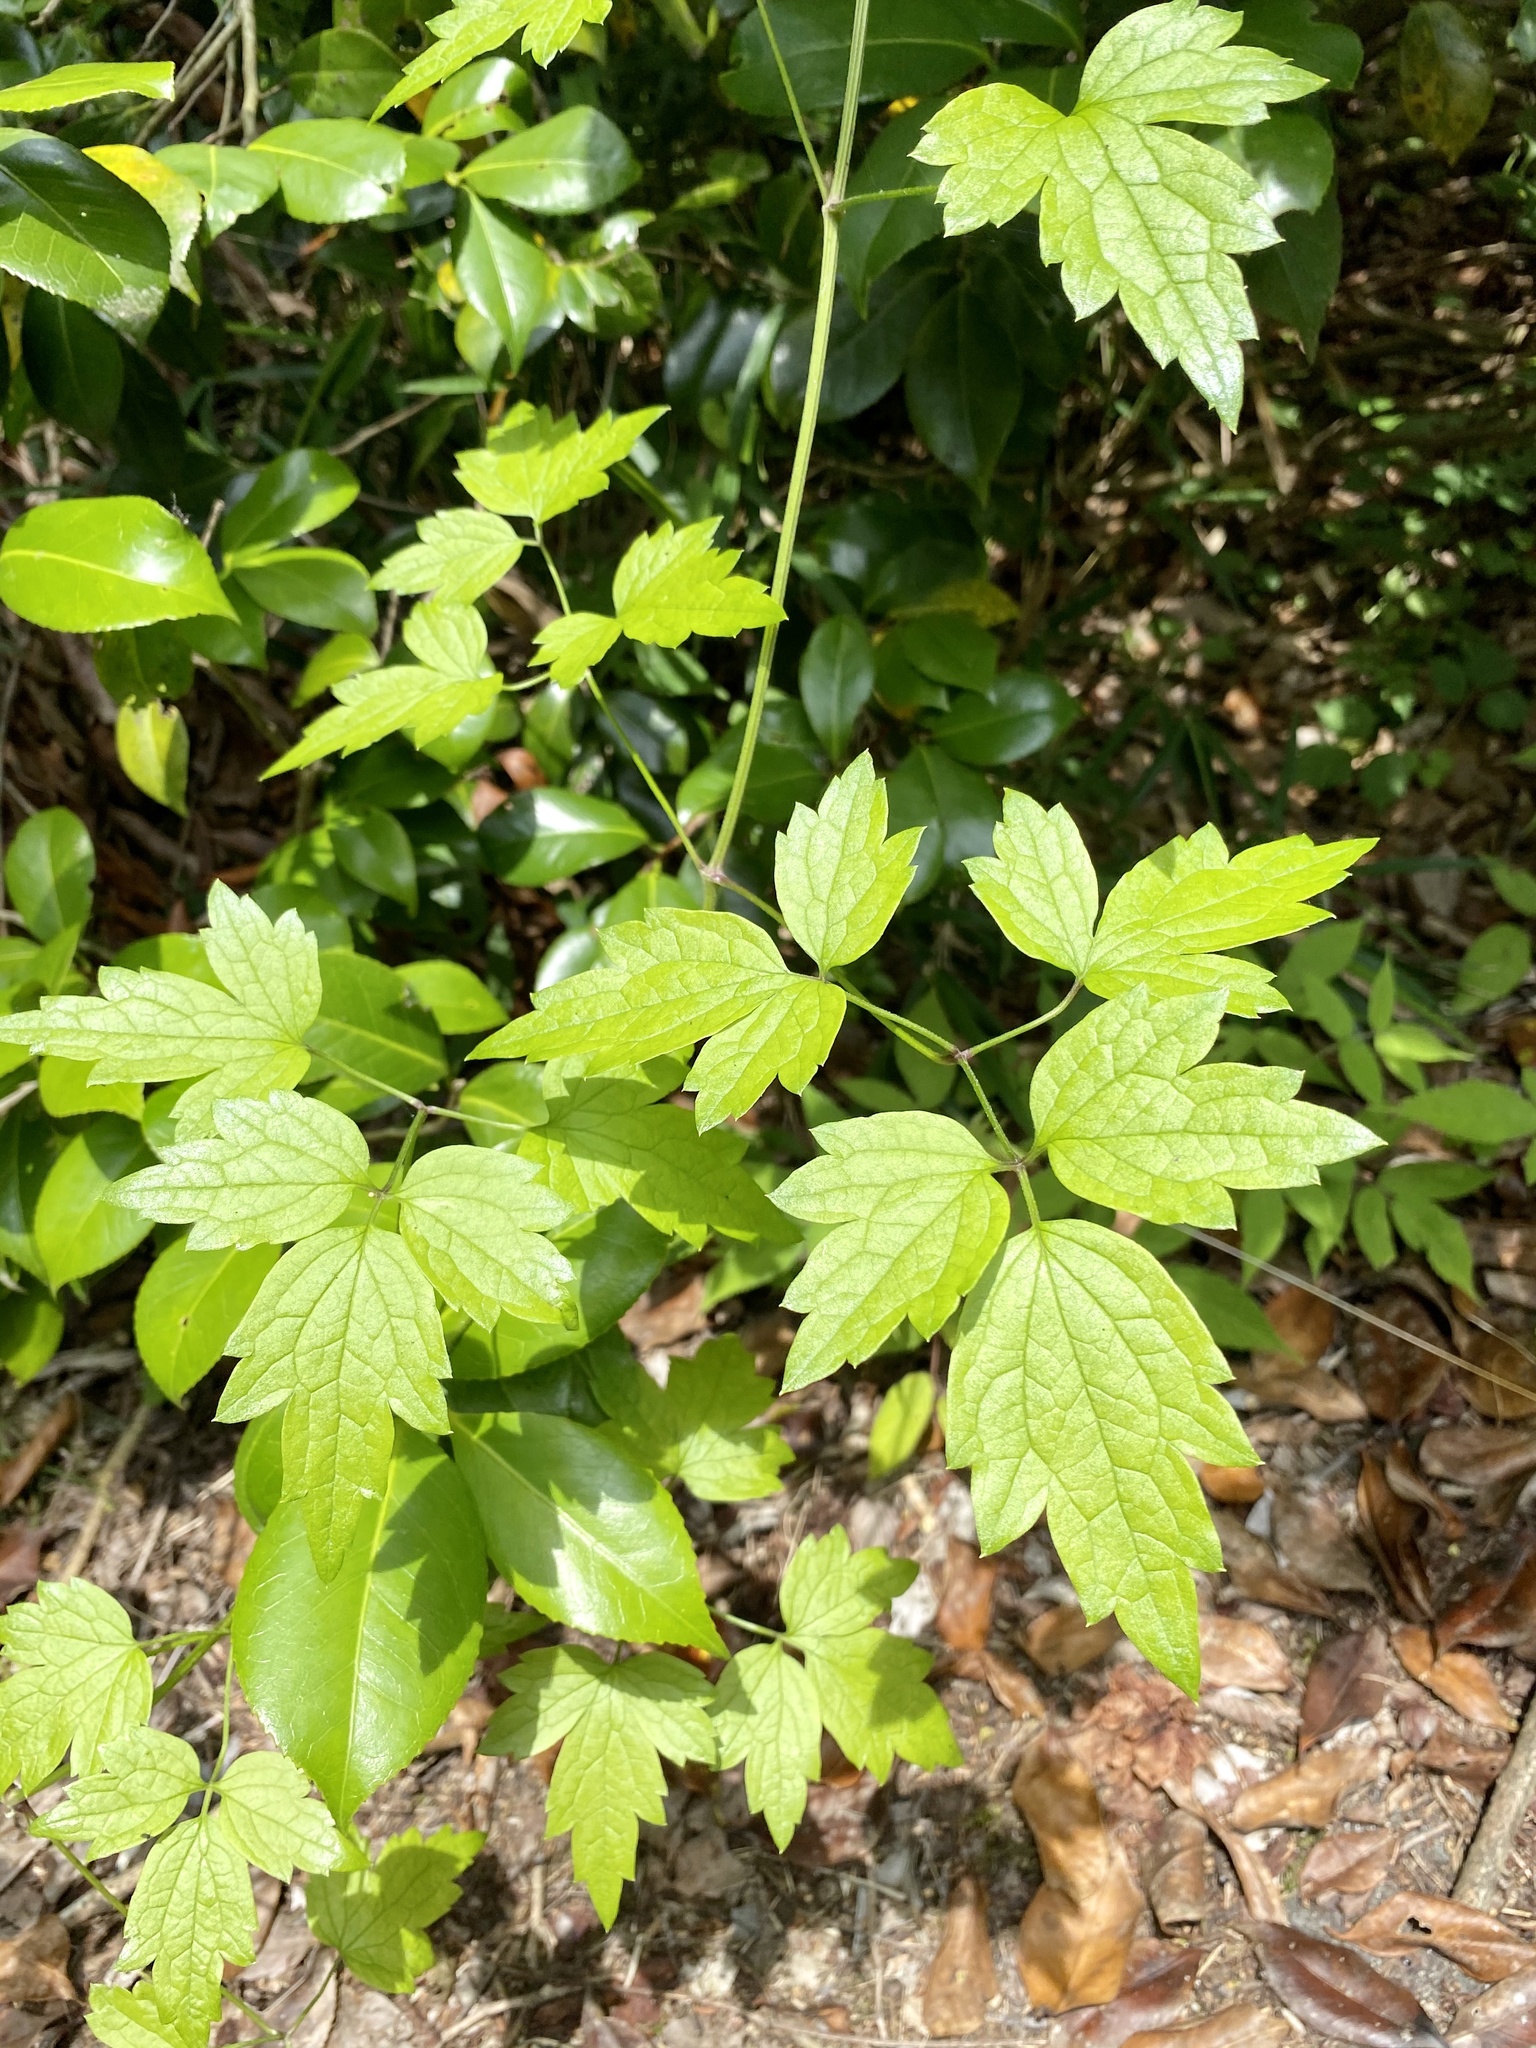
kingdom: Plantae
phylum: Tracheophyta
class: Magnoliopsida
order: Ranunculales
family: Ranunculaceae
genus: Clematis
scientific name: Clematis apiifolia
